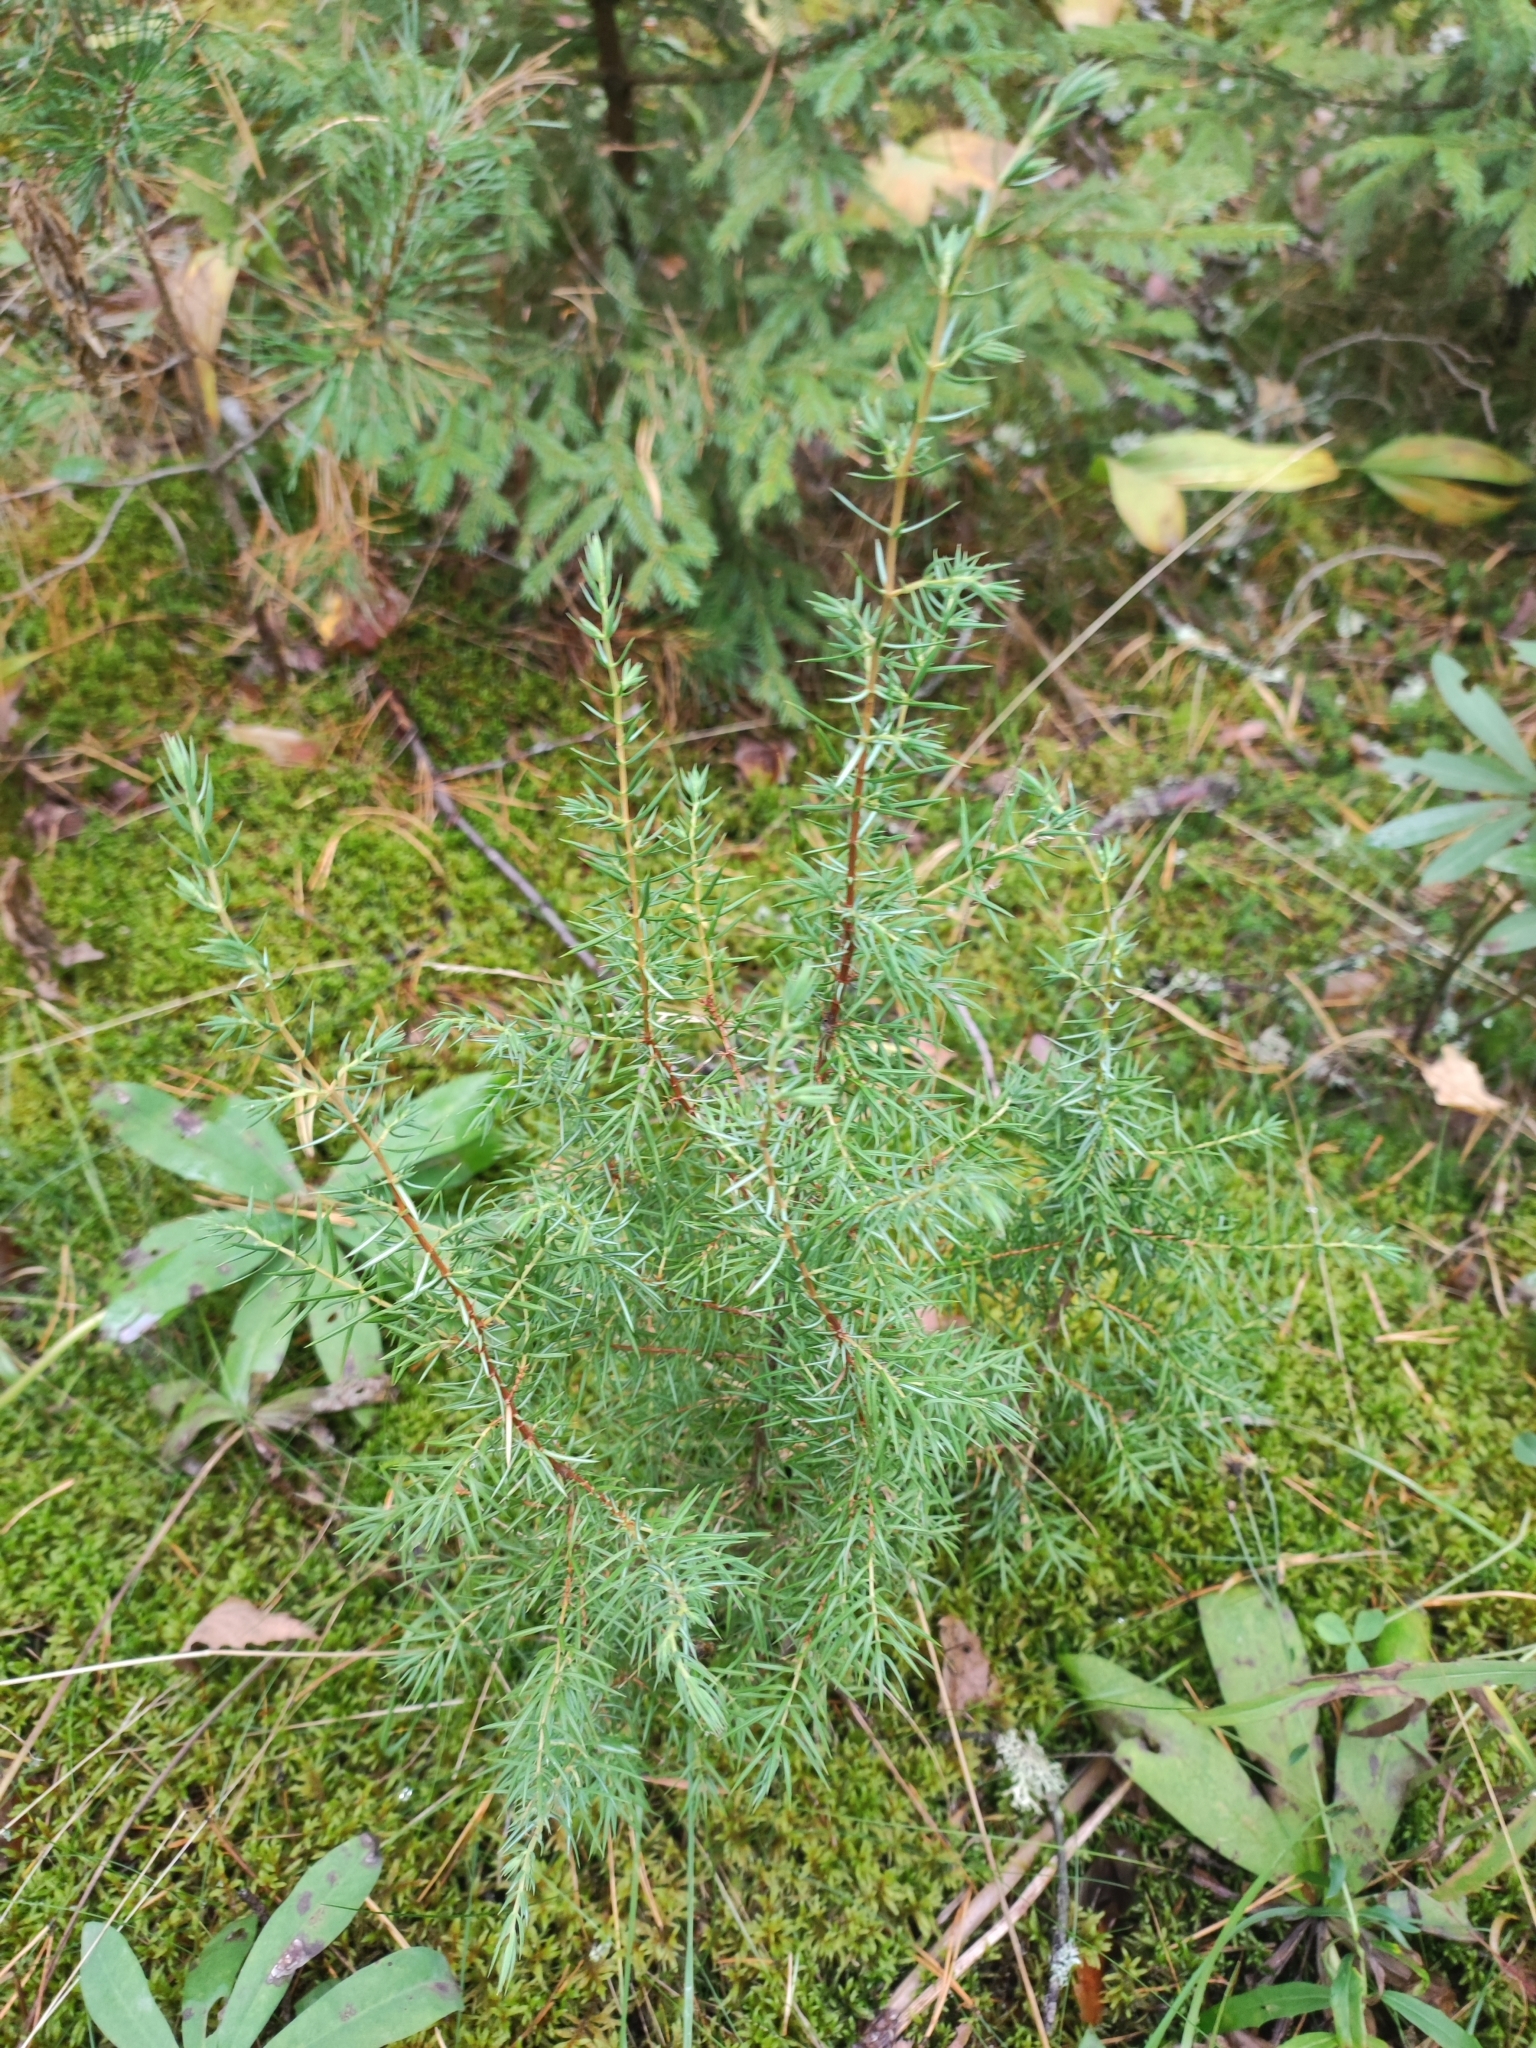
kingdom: Plantae
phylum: Tracheophyta
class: Pinopsida
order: Pinales
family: Cupressaceae
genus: Juniperus
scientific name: Juniperus communis
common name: Common juniper
